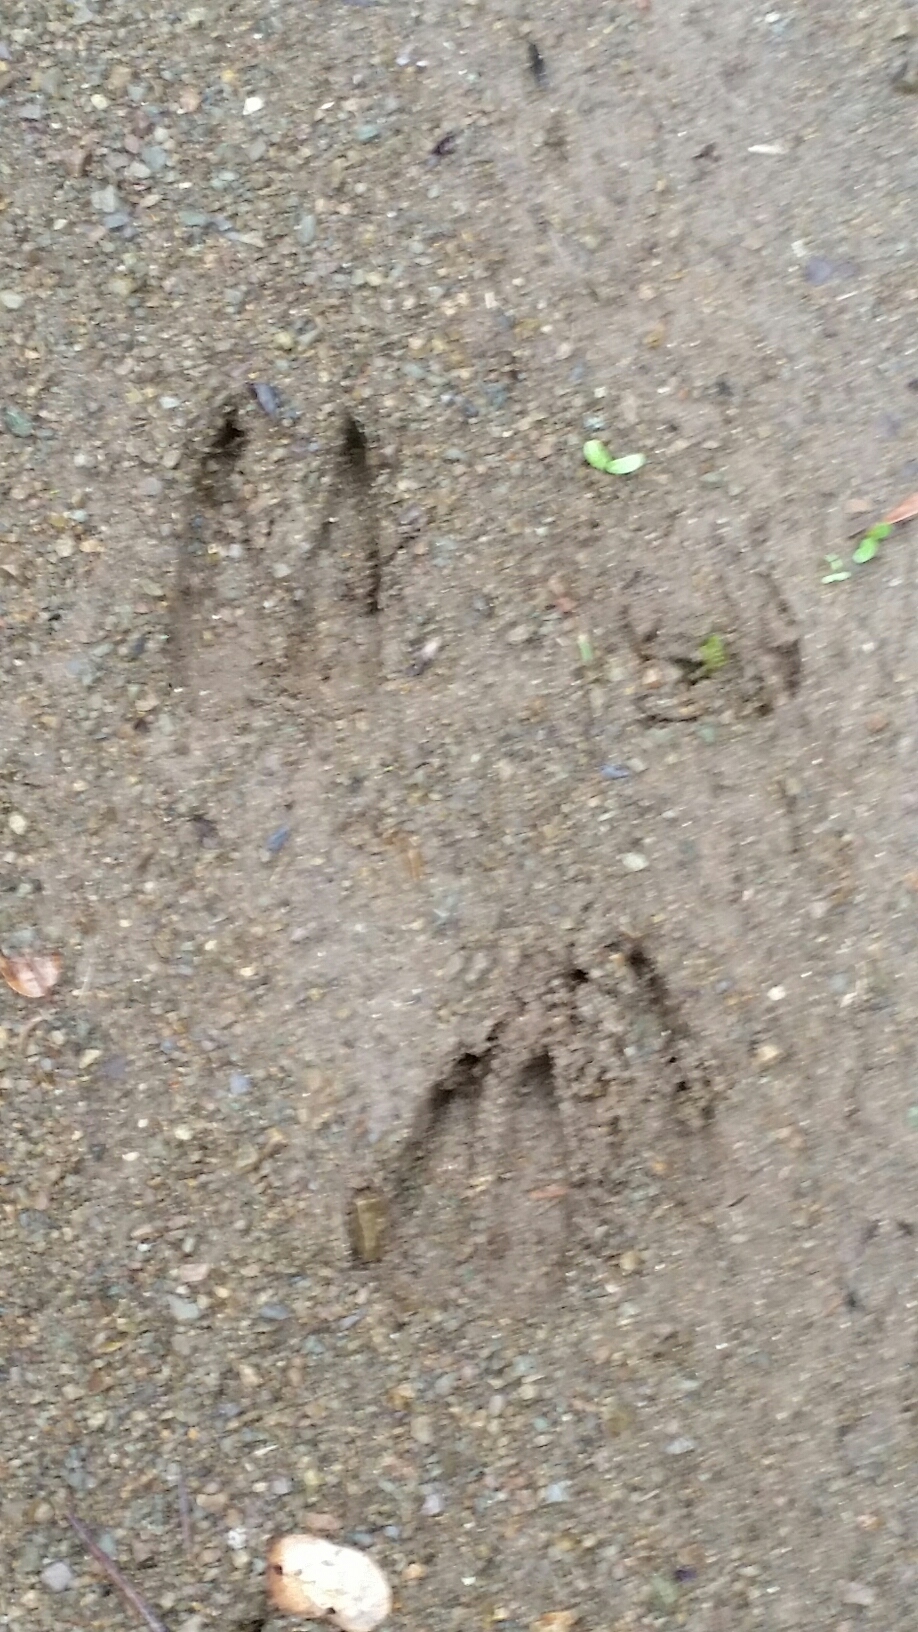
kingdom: Animalia
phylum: Chordata
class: Mammalia
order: Artiodactyla
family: Cervidae
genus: Odocoileus
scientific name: Odocoileus hemionus
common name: Mule deer
